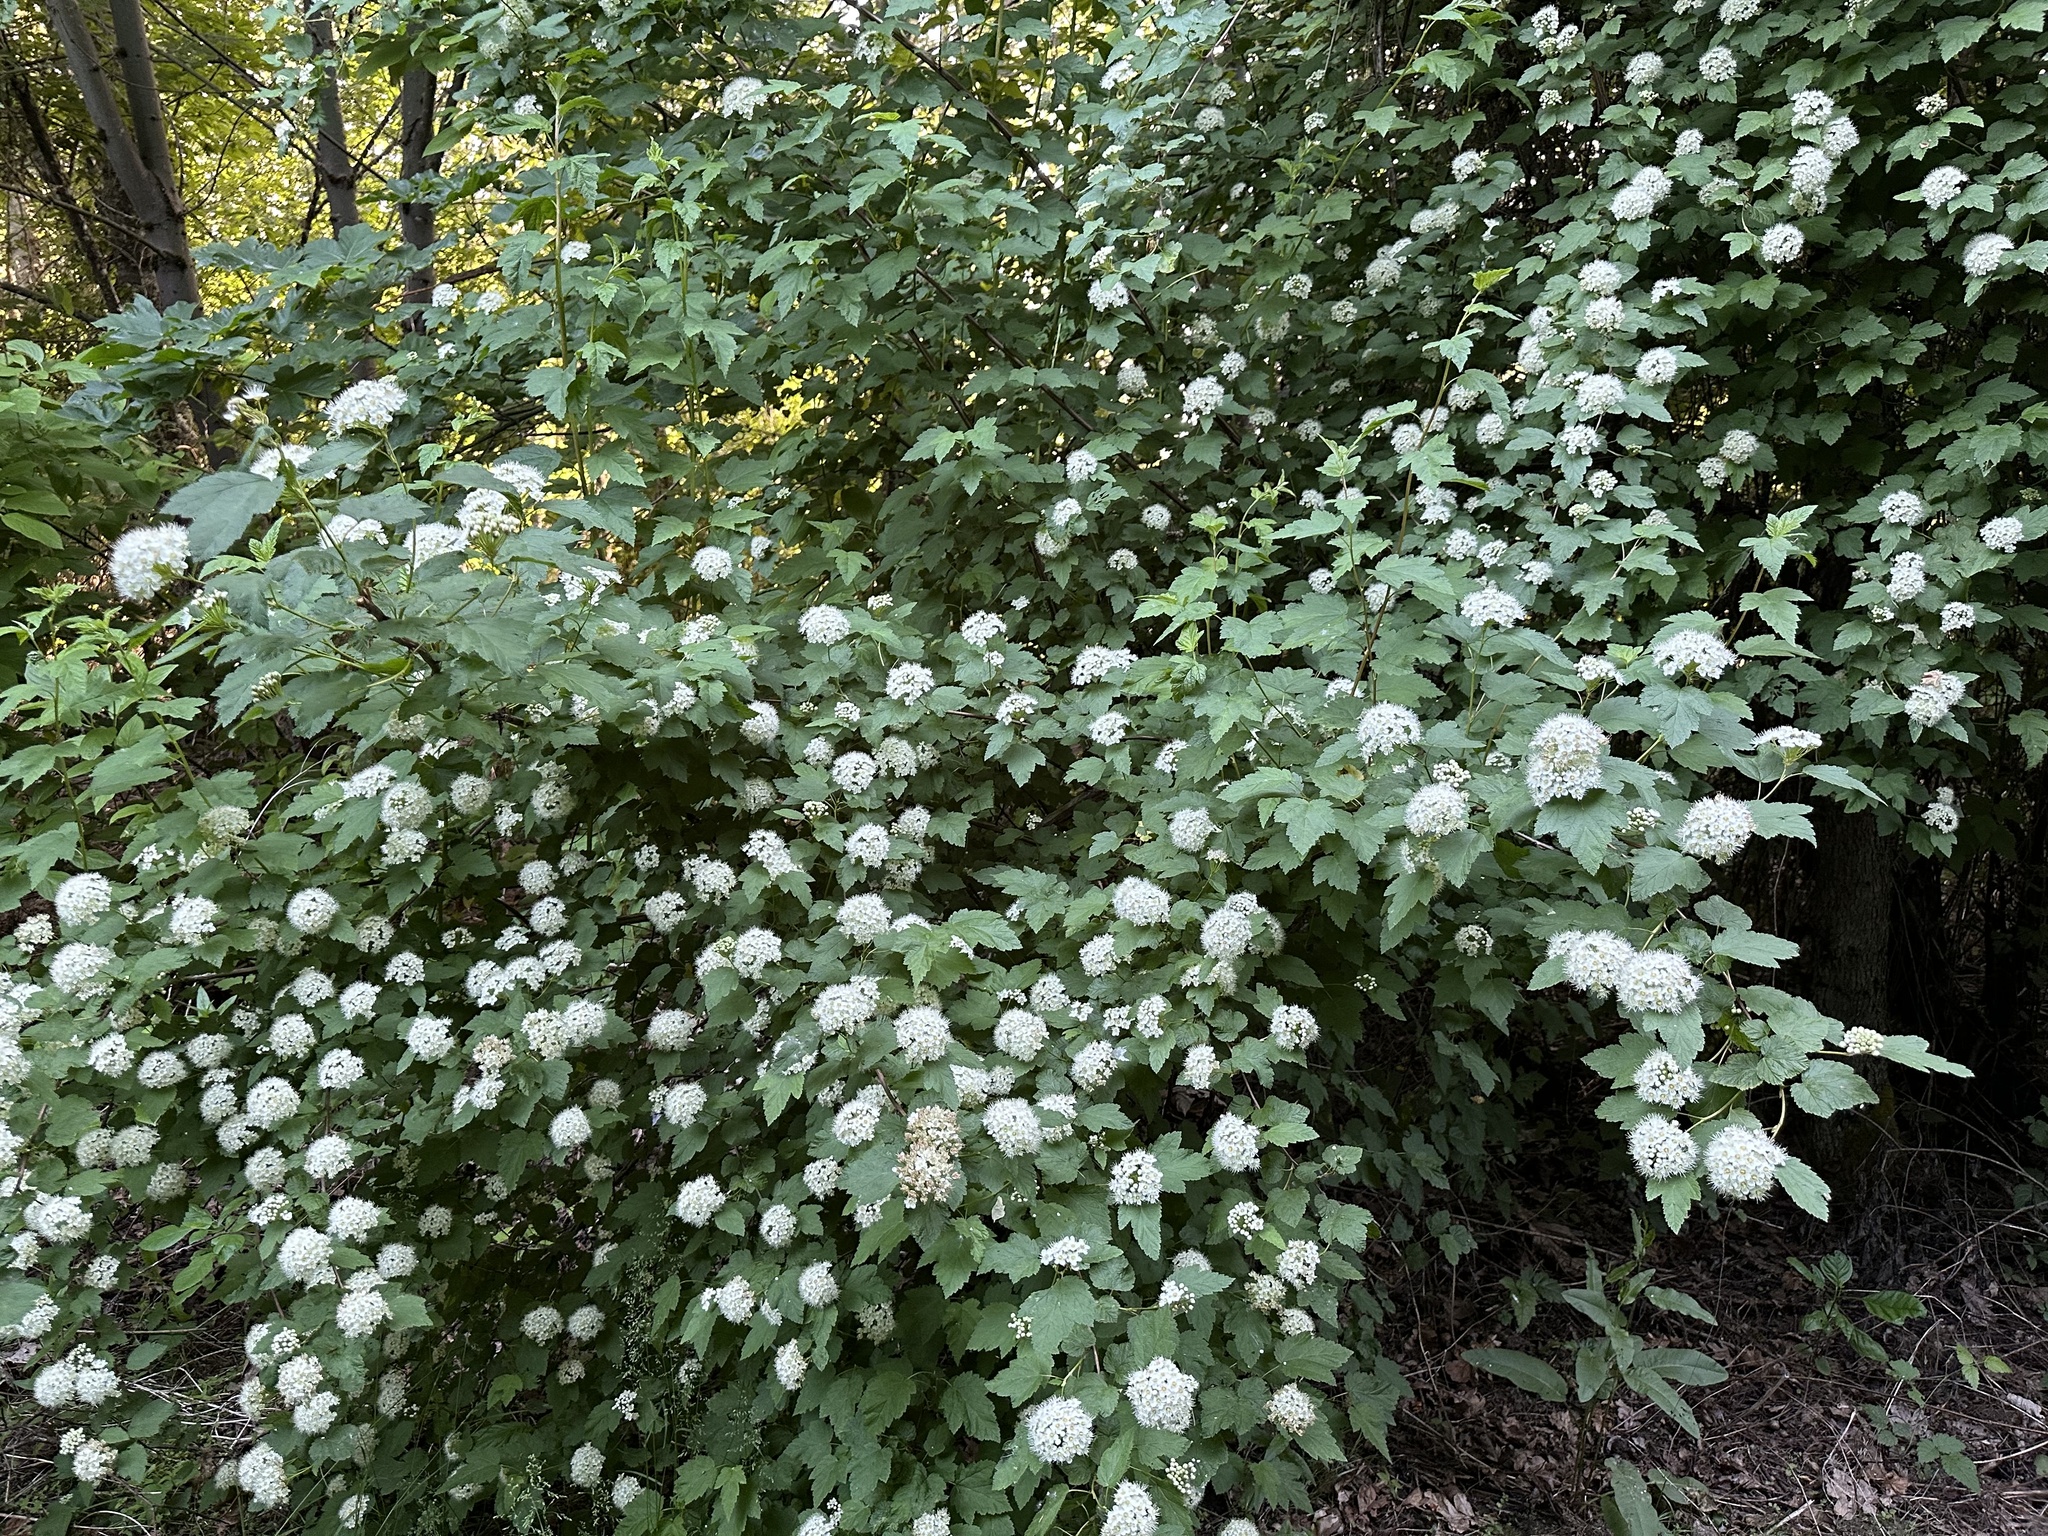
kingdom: Plantae
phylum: Tracheophyta
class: Magnoliopsida
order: Rosales
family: Rosaceae
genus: Physocarpus
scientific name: Physocarpus capitatus
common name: Pacific ninebark
